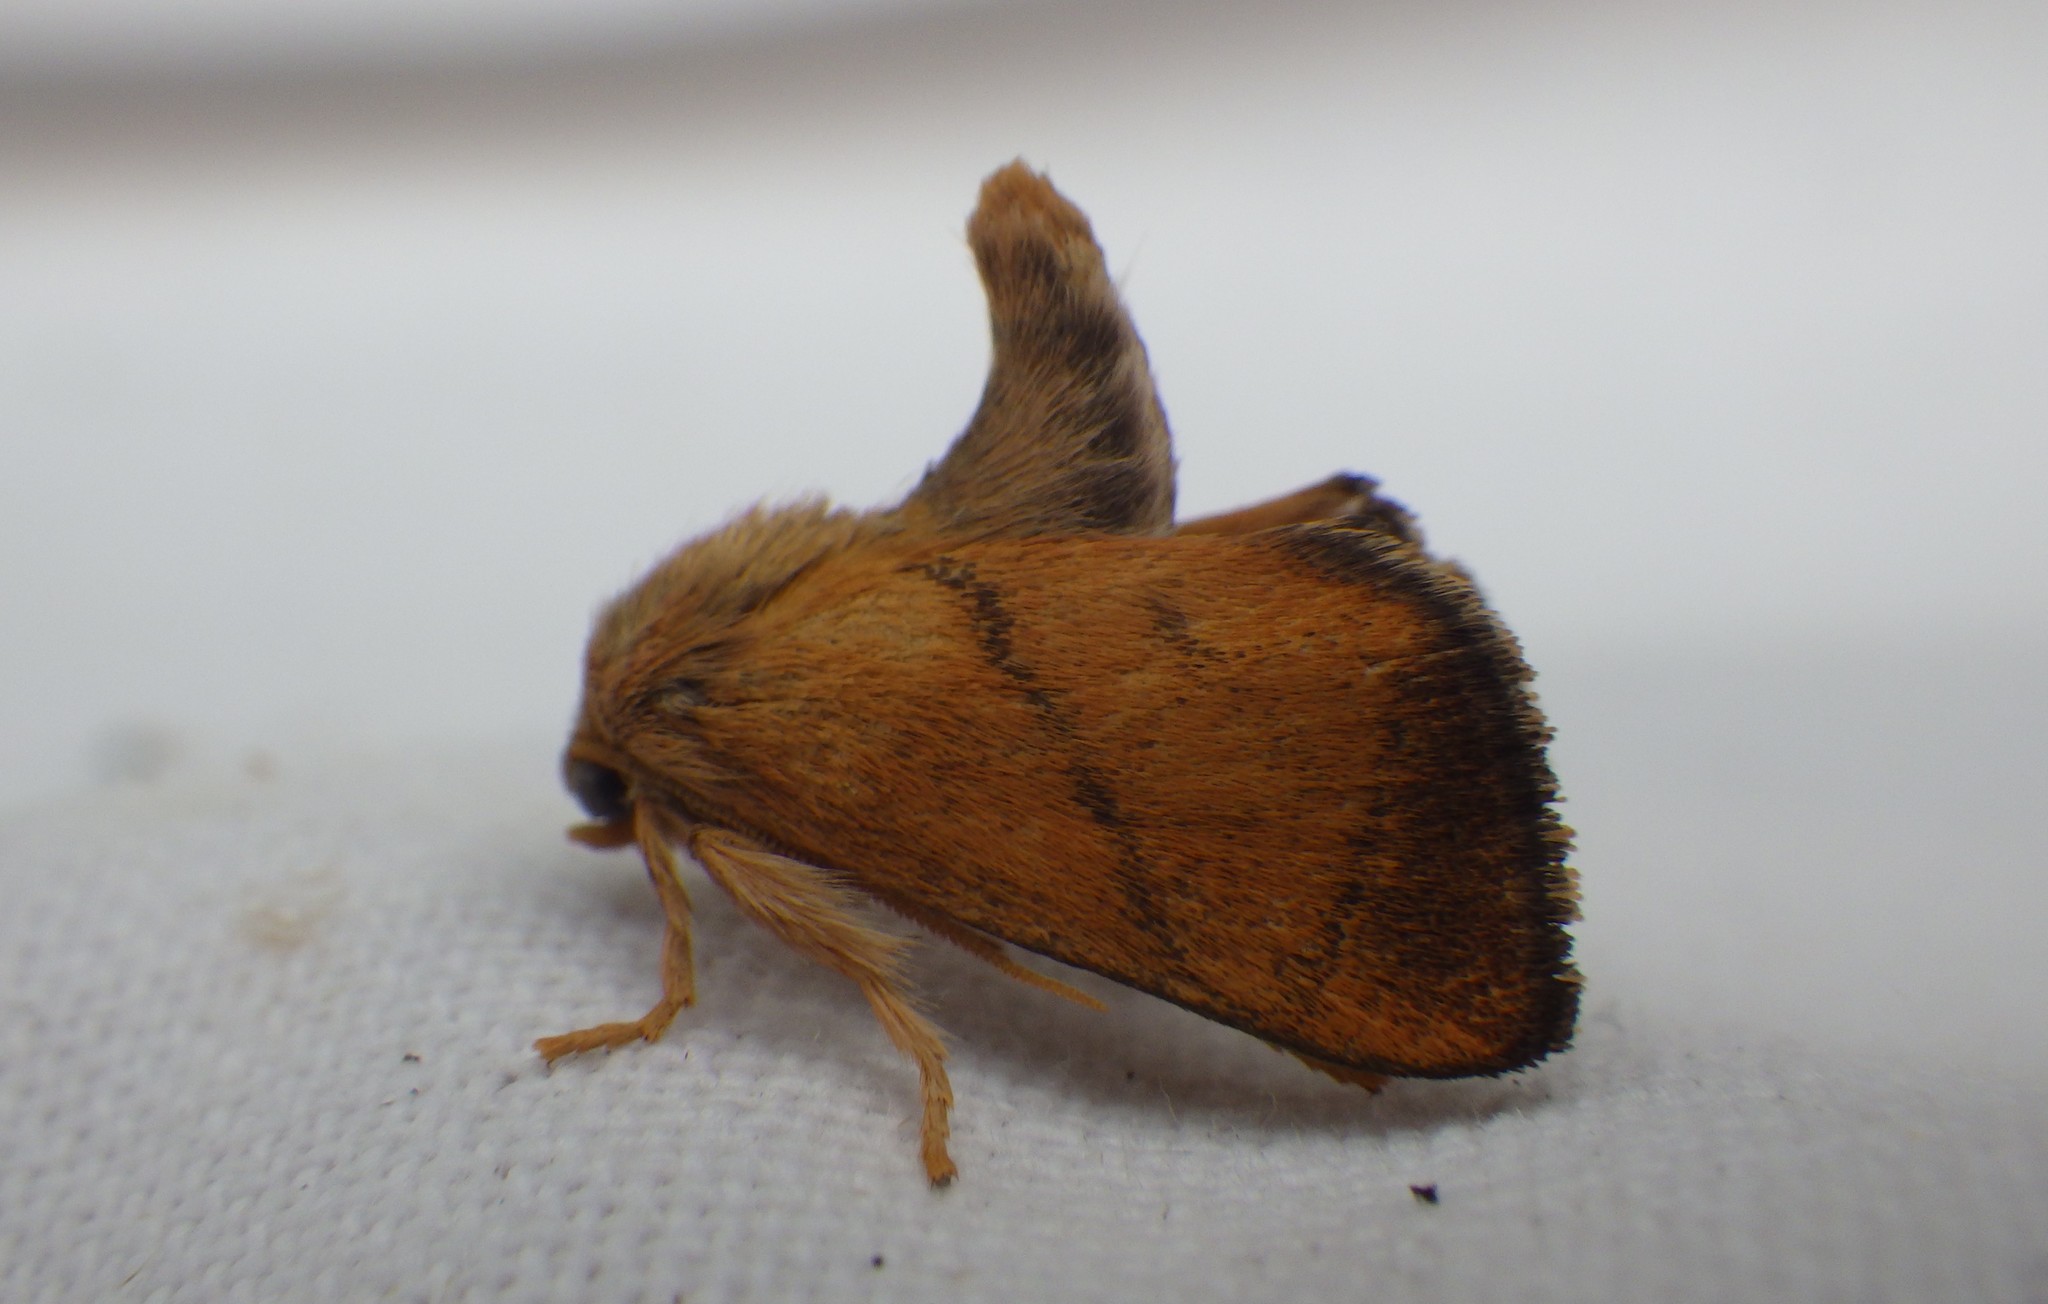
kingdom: Animalia
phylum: Arthropoda
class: Insecta
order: Lepidoptera
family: Limacodidae
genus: Apoda
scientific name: Apoda limacodes
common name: Festoon
